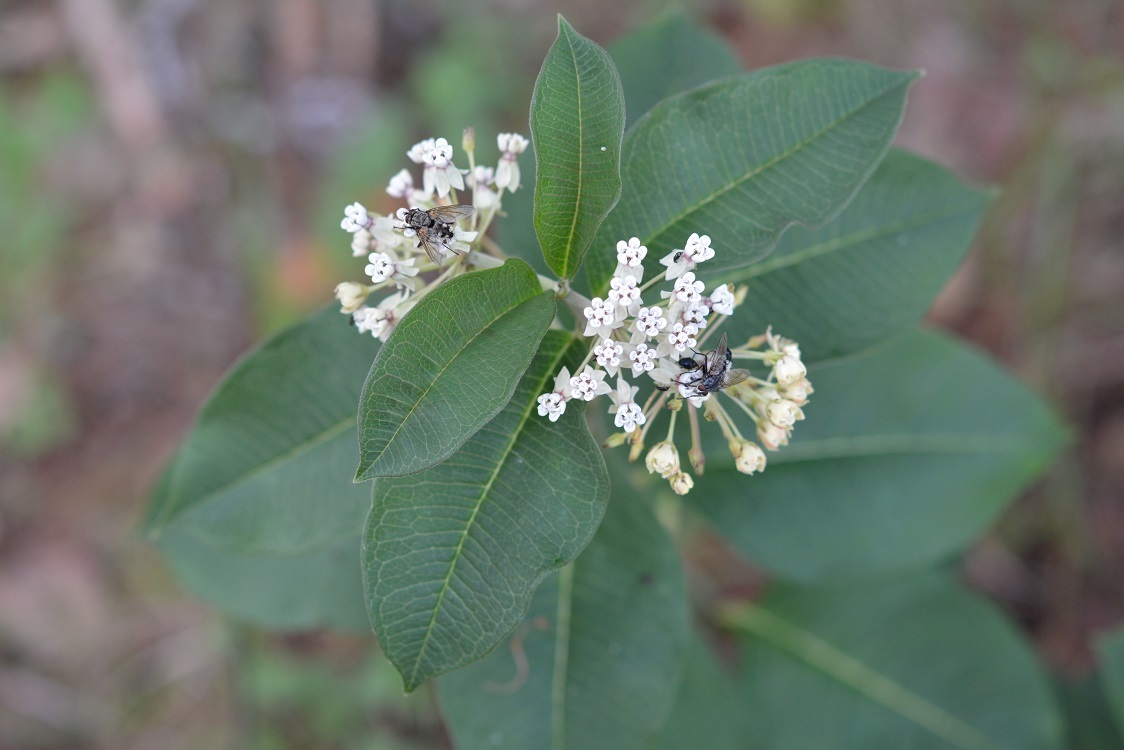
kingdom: Plantae
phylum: Tracheophyta
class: Magnoliopsida
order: Gentianales
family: Apocynaceae
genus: Asclepias
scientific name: Asclepias similis
